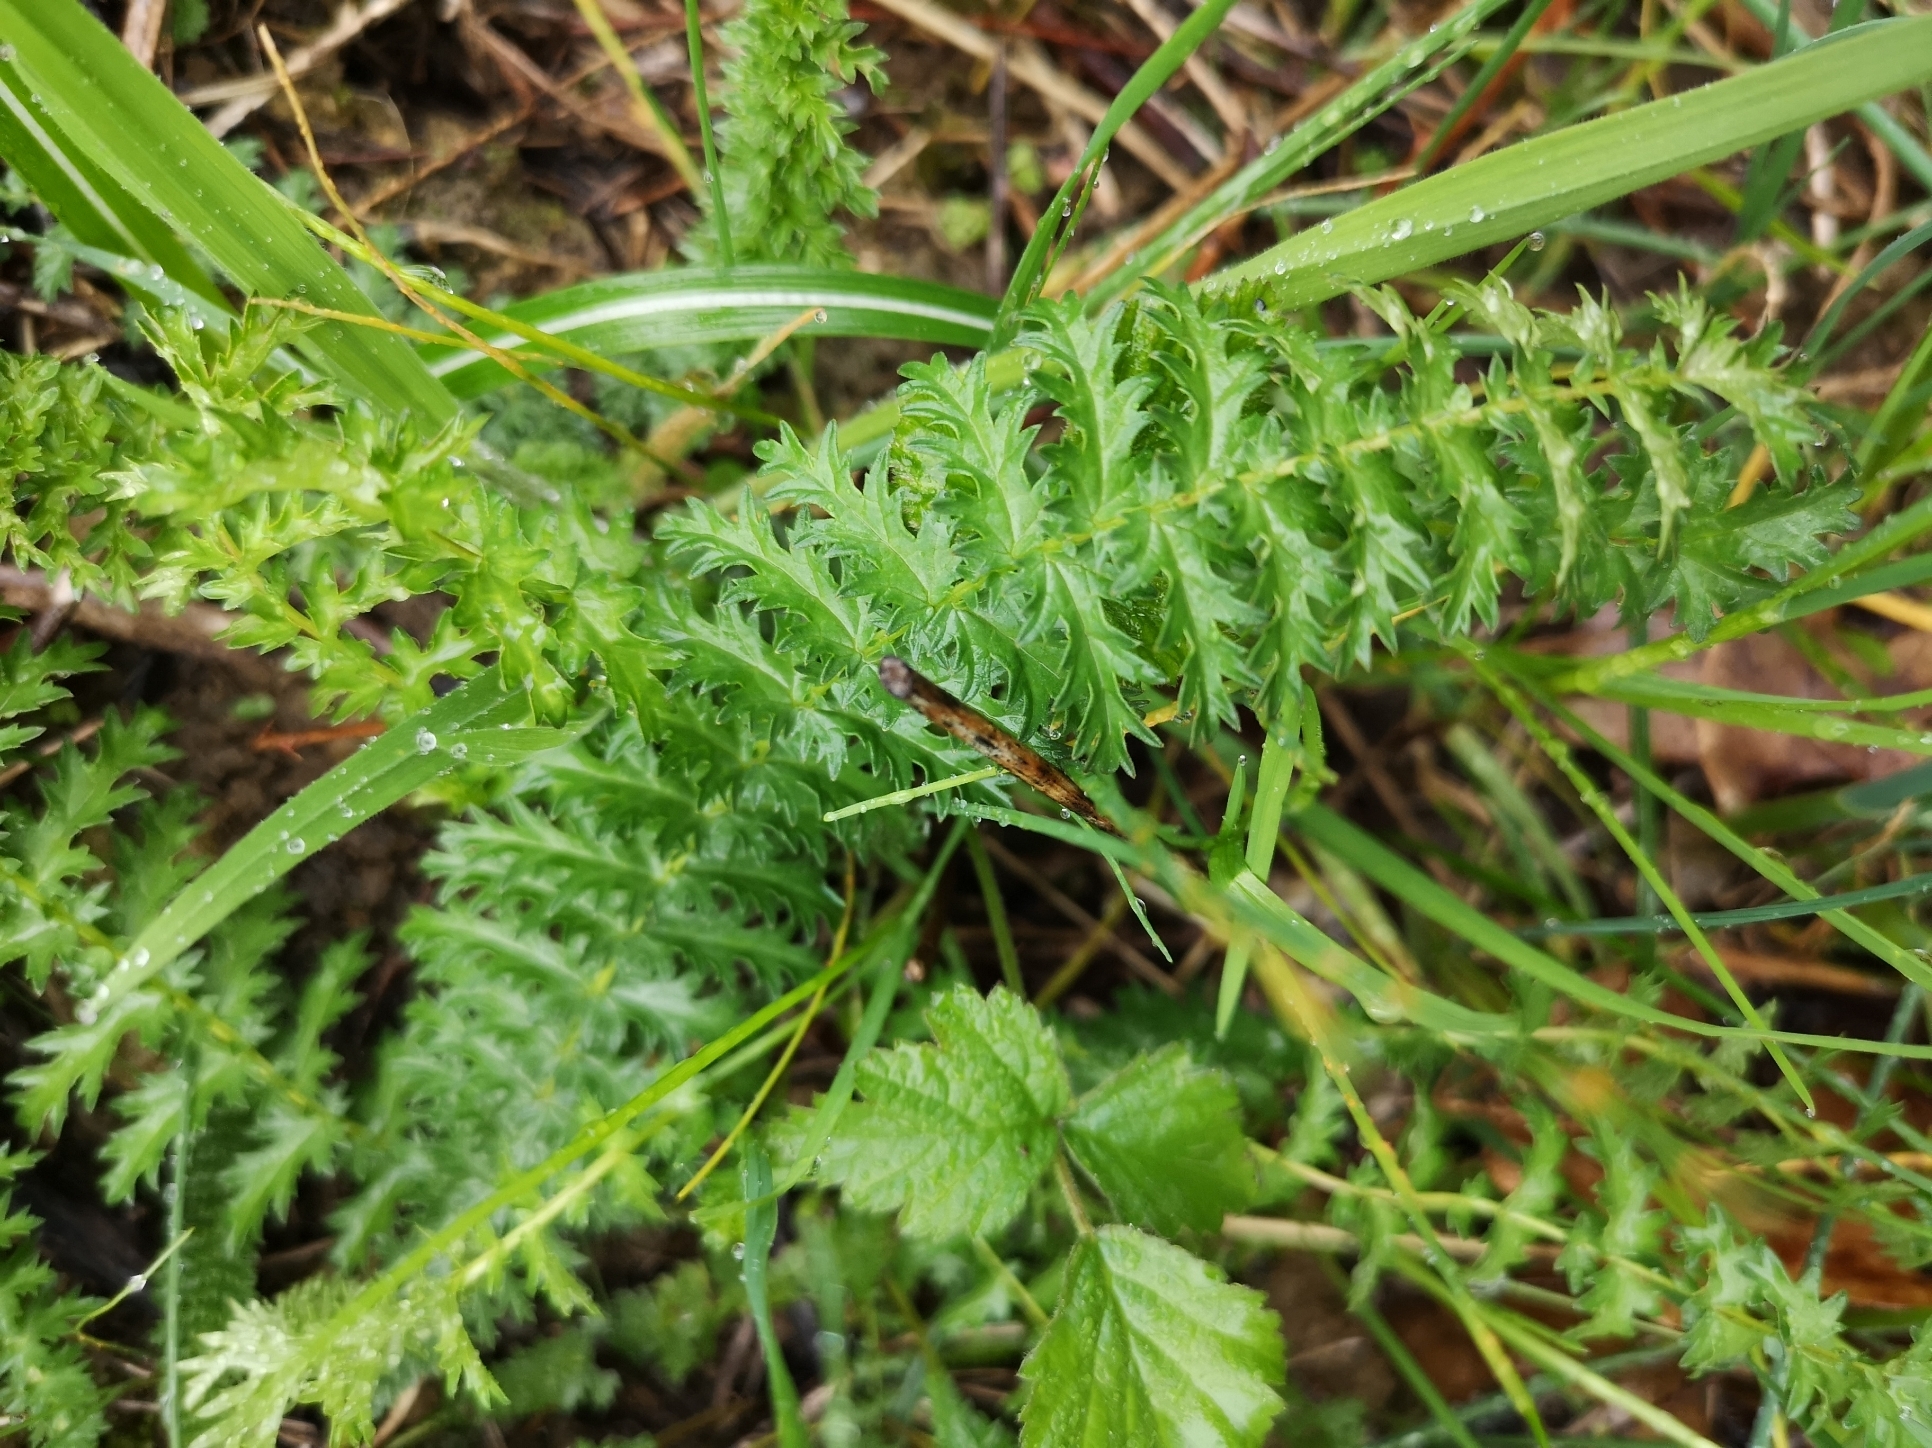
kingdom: Plantae
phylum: Tracheophyta
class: Magnoliopsida
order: Rosales
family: Rosaceae
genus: Filipendula
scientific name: Filipendula vulgaris
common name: Dropwort
